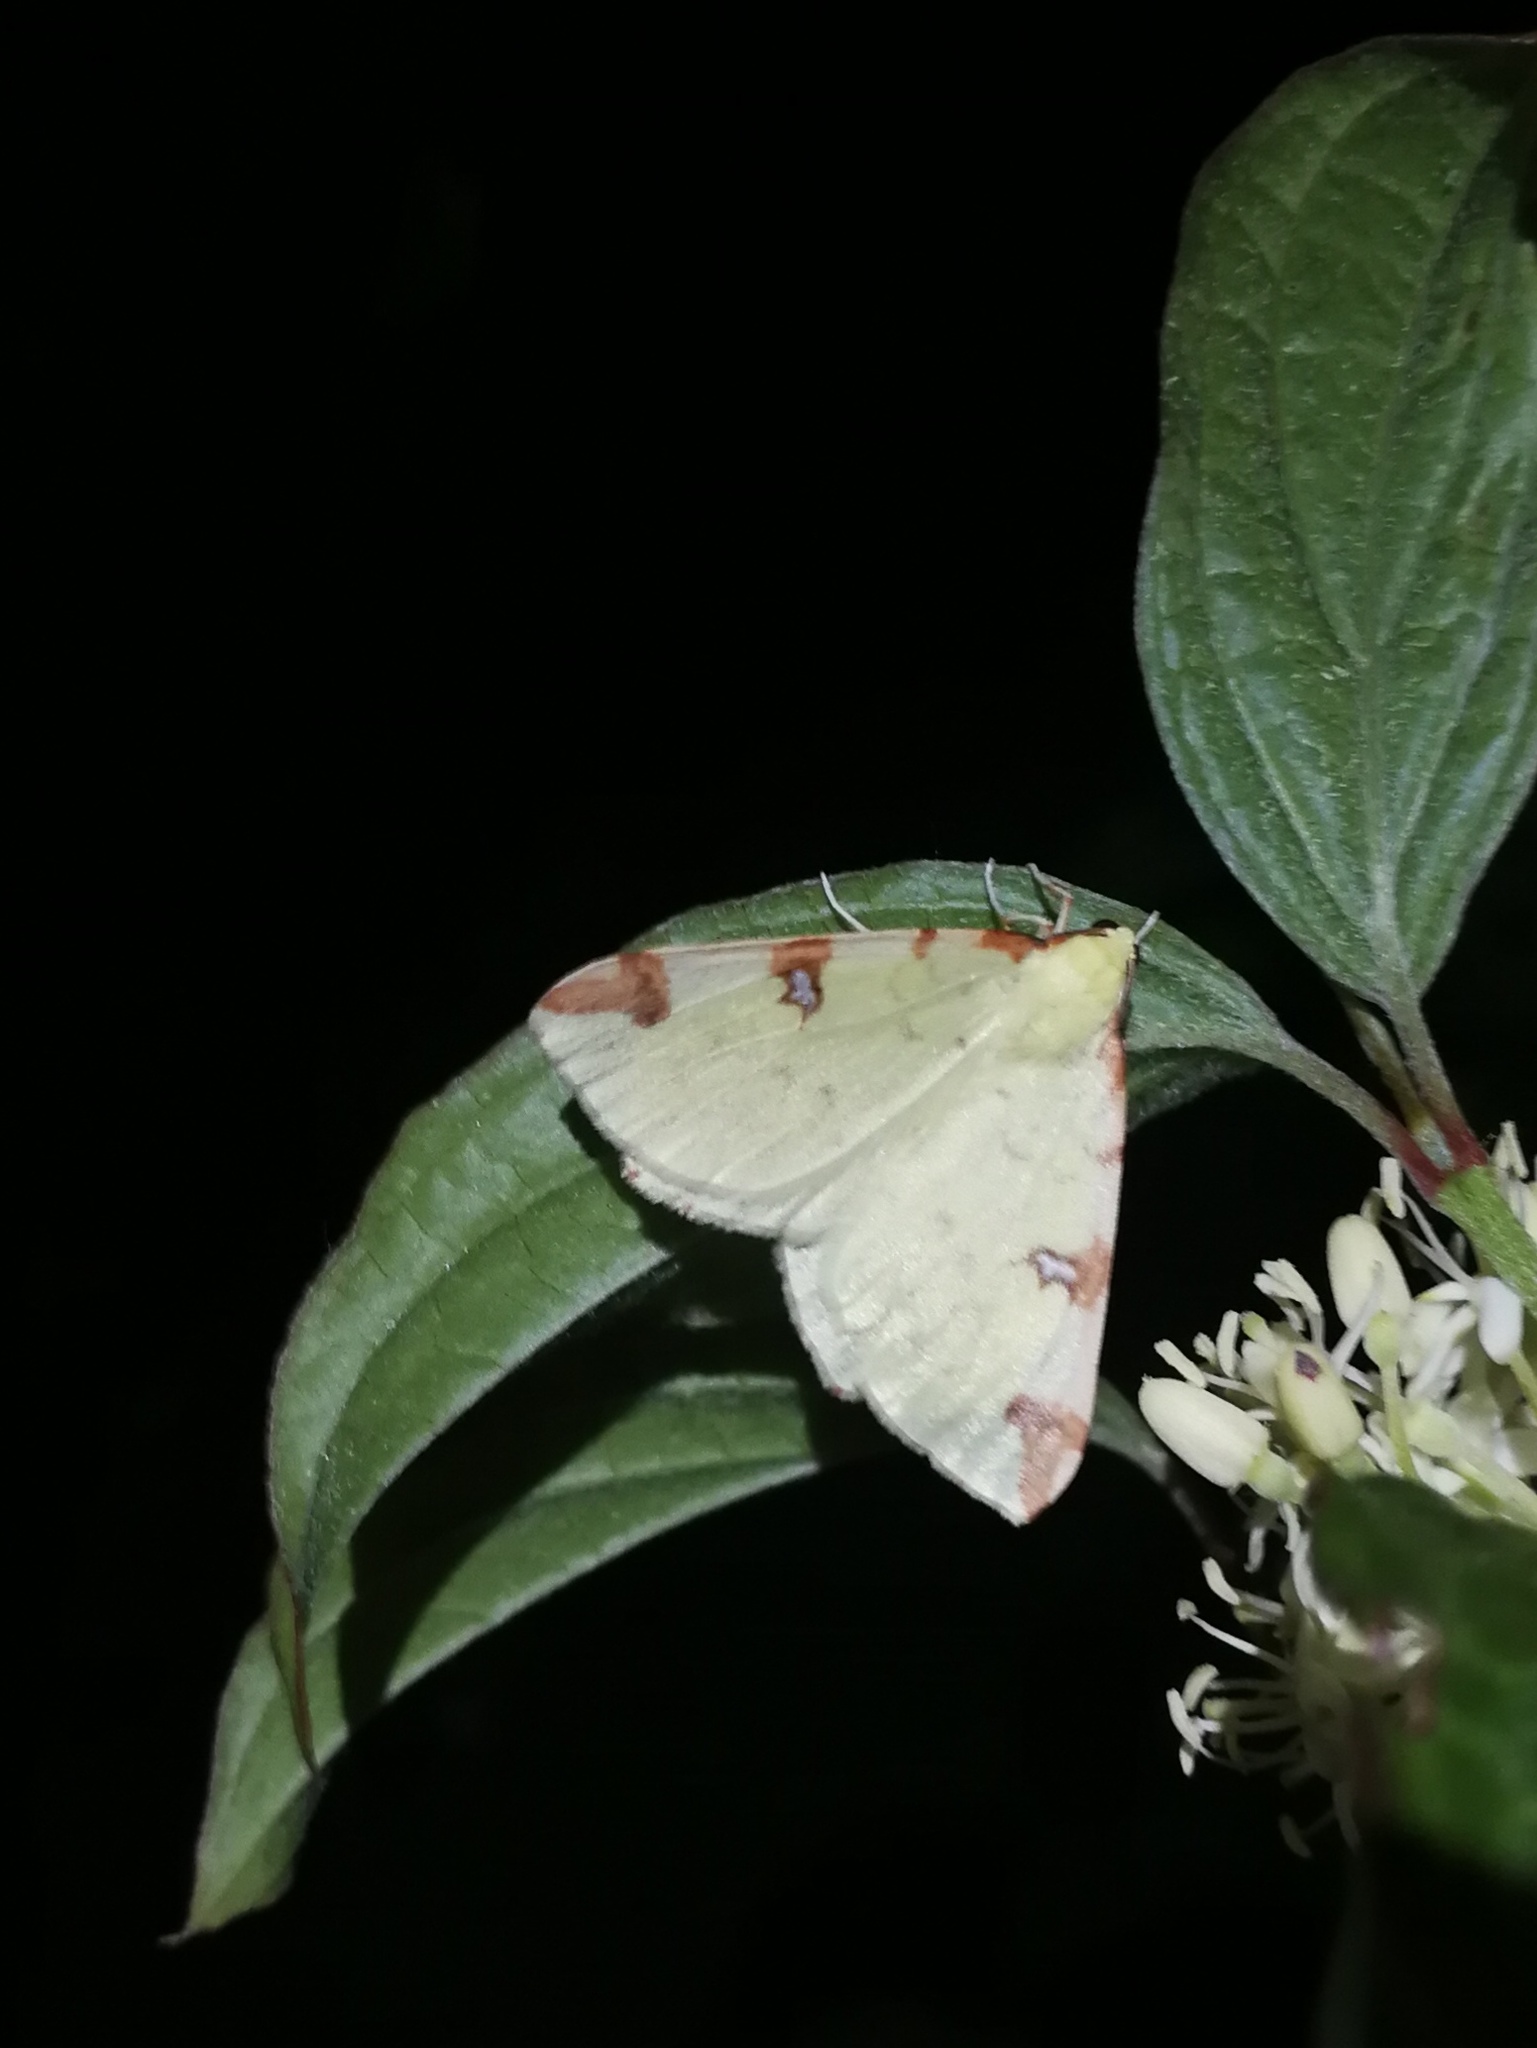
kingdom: Animalia
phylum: Arthropoda
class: Insecta
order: Lepidoptera
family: Geometridae
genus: Opisthograptis
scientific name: Opisthograptis luteolata
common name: Brimstone moth
